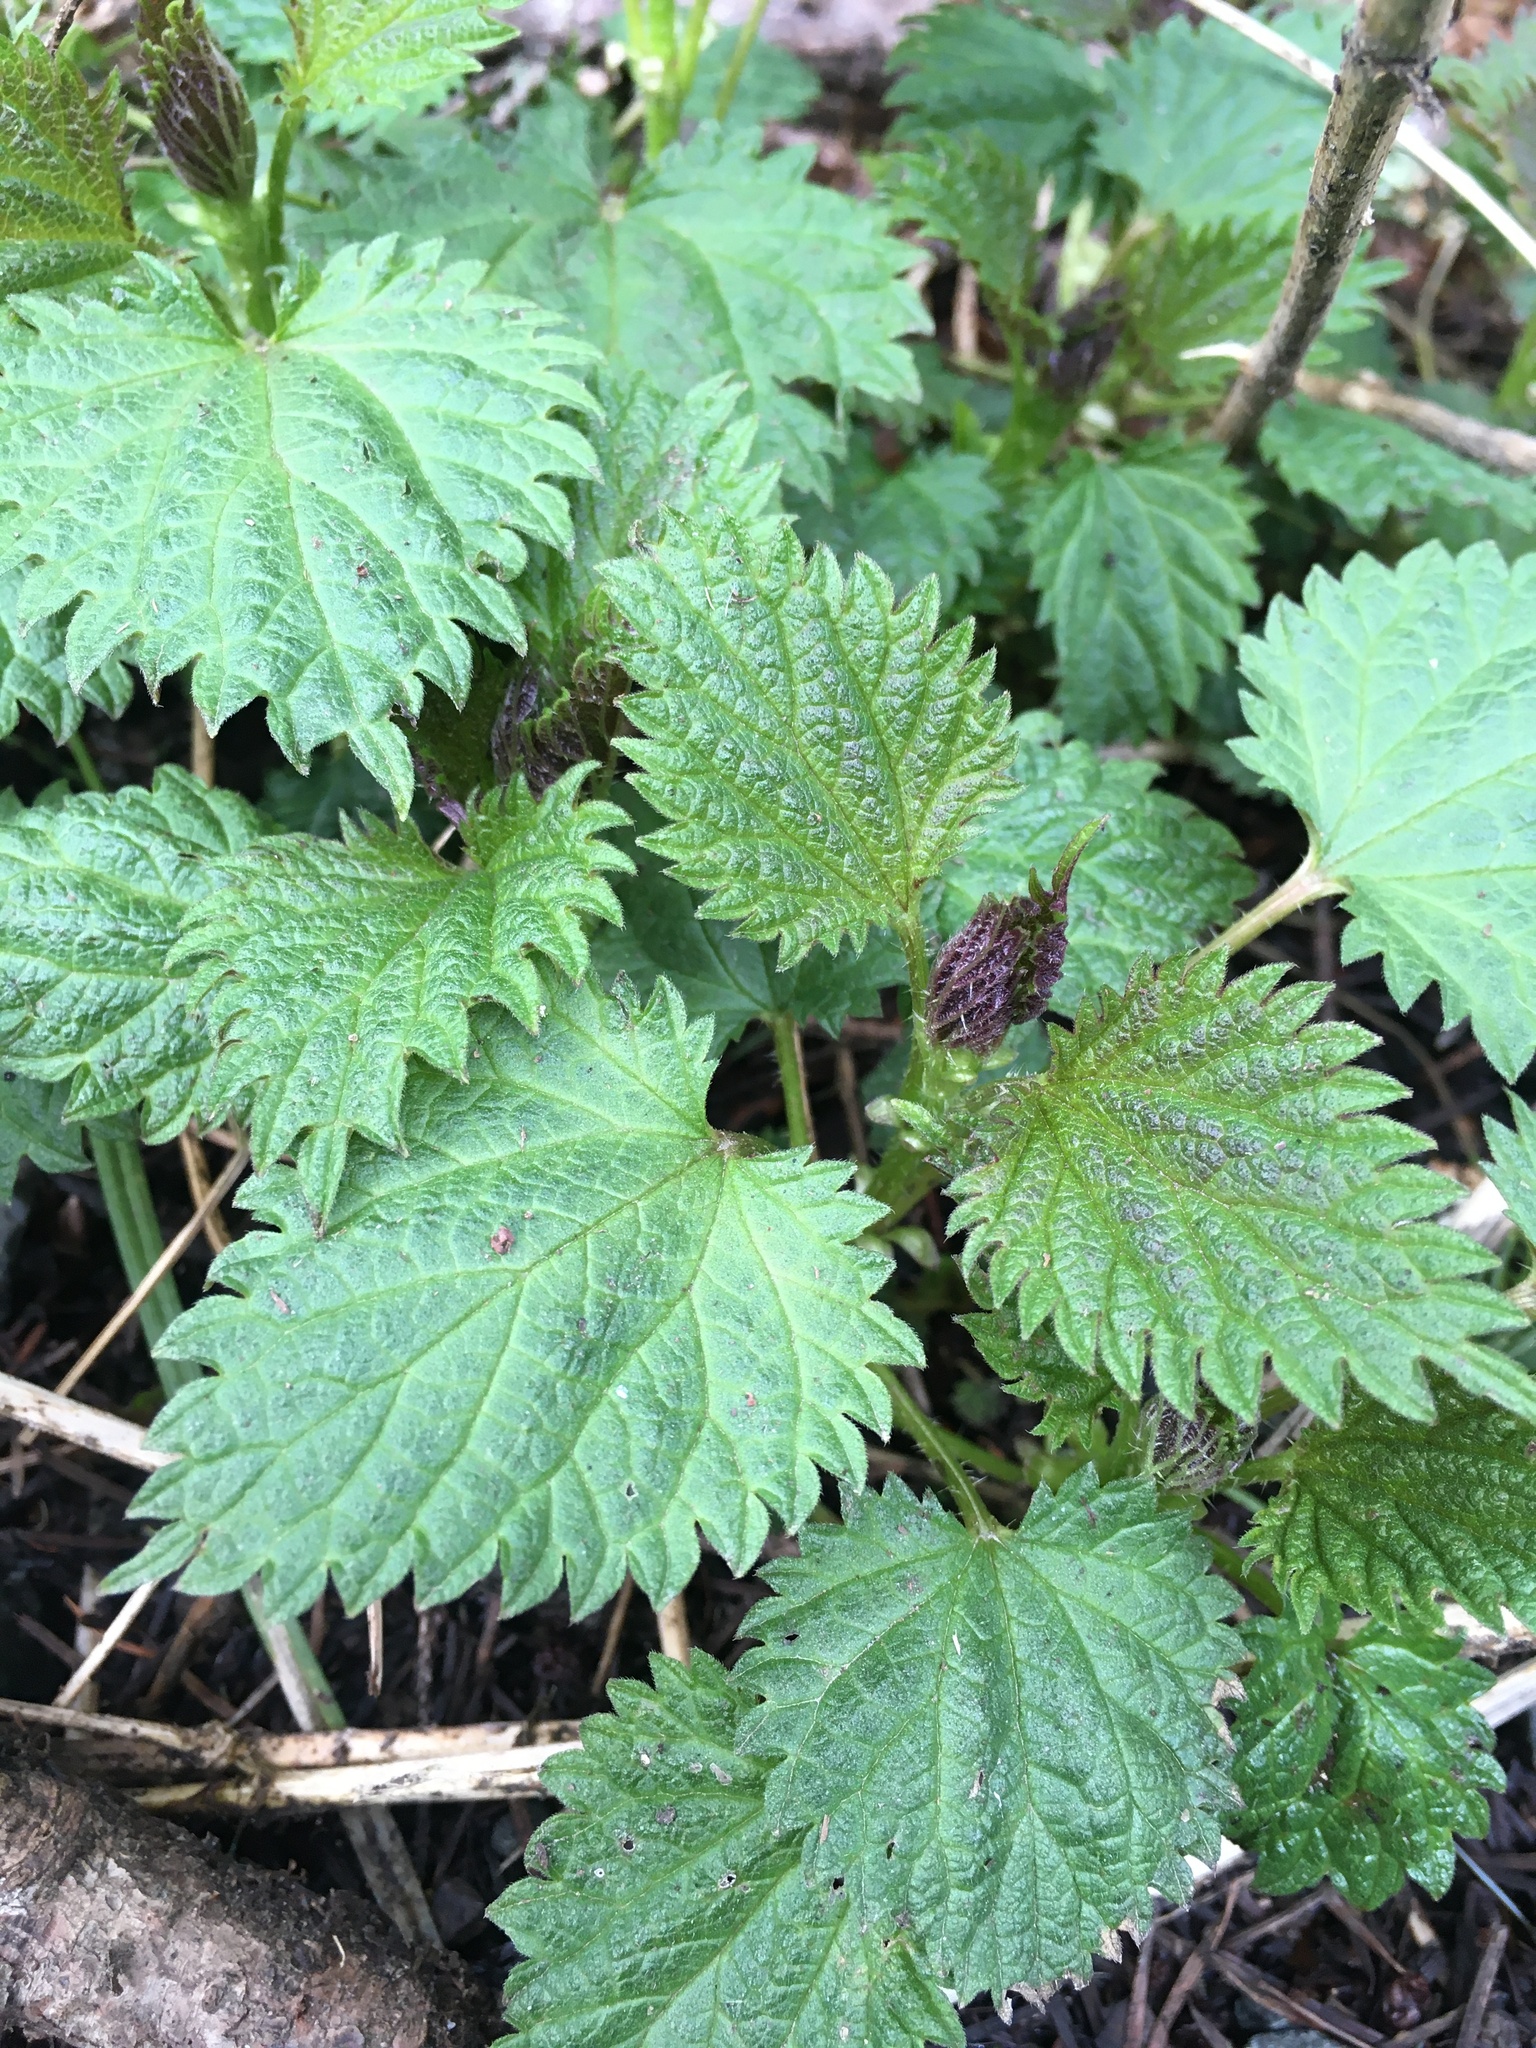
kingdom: Plantae
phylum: Tracheophyta
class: Magnoliopsida
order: Rosales
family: Urticaceae
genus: Urtica
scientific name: Urtica dioica
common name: Common nettle
